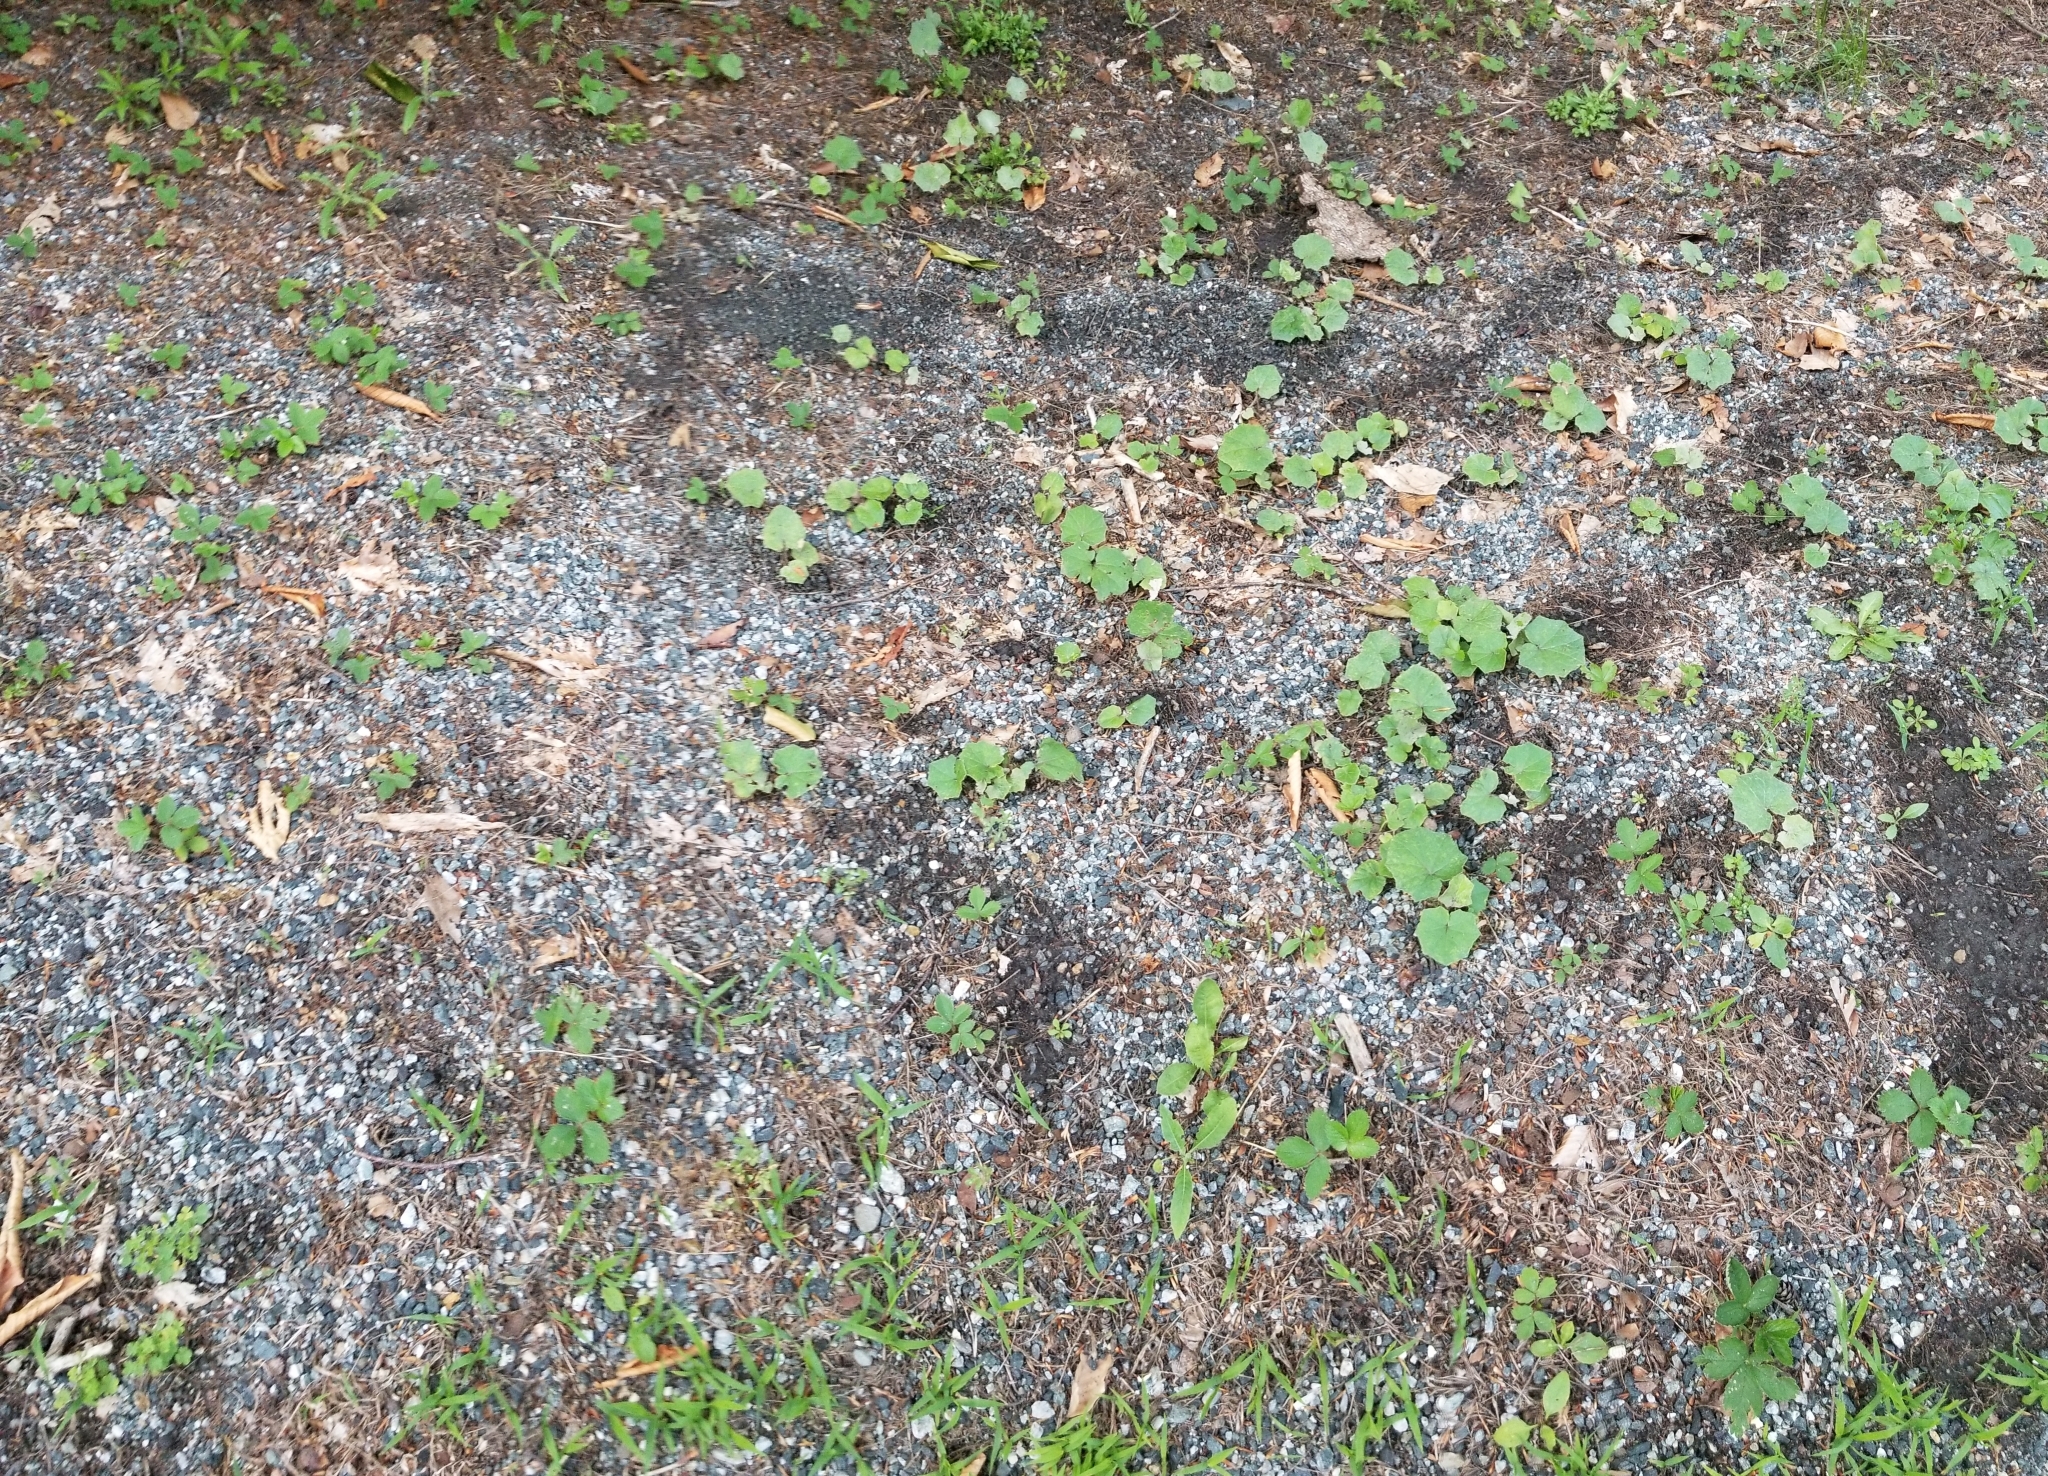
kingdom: Plantae
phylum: Tracheophyta
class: Magnoliopsida
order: Asterales
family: Asteraceae
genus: Tussilago
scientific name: Tussilago farfara
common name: Coltsfoot
